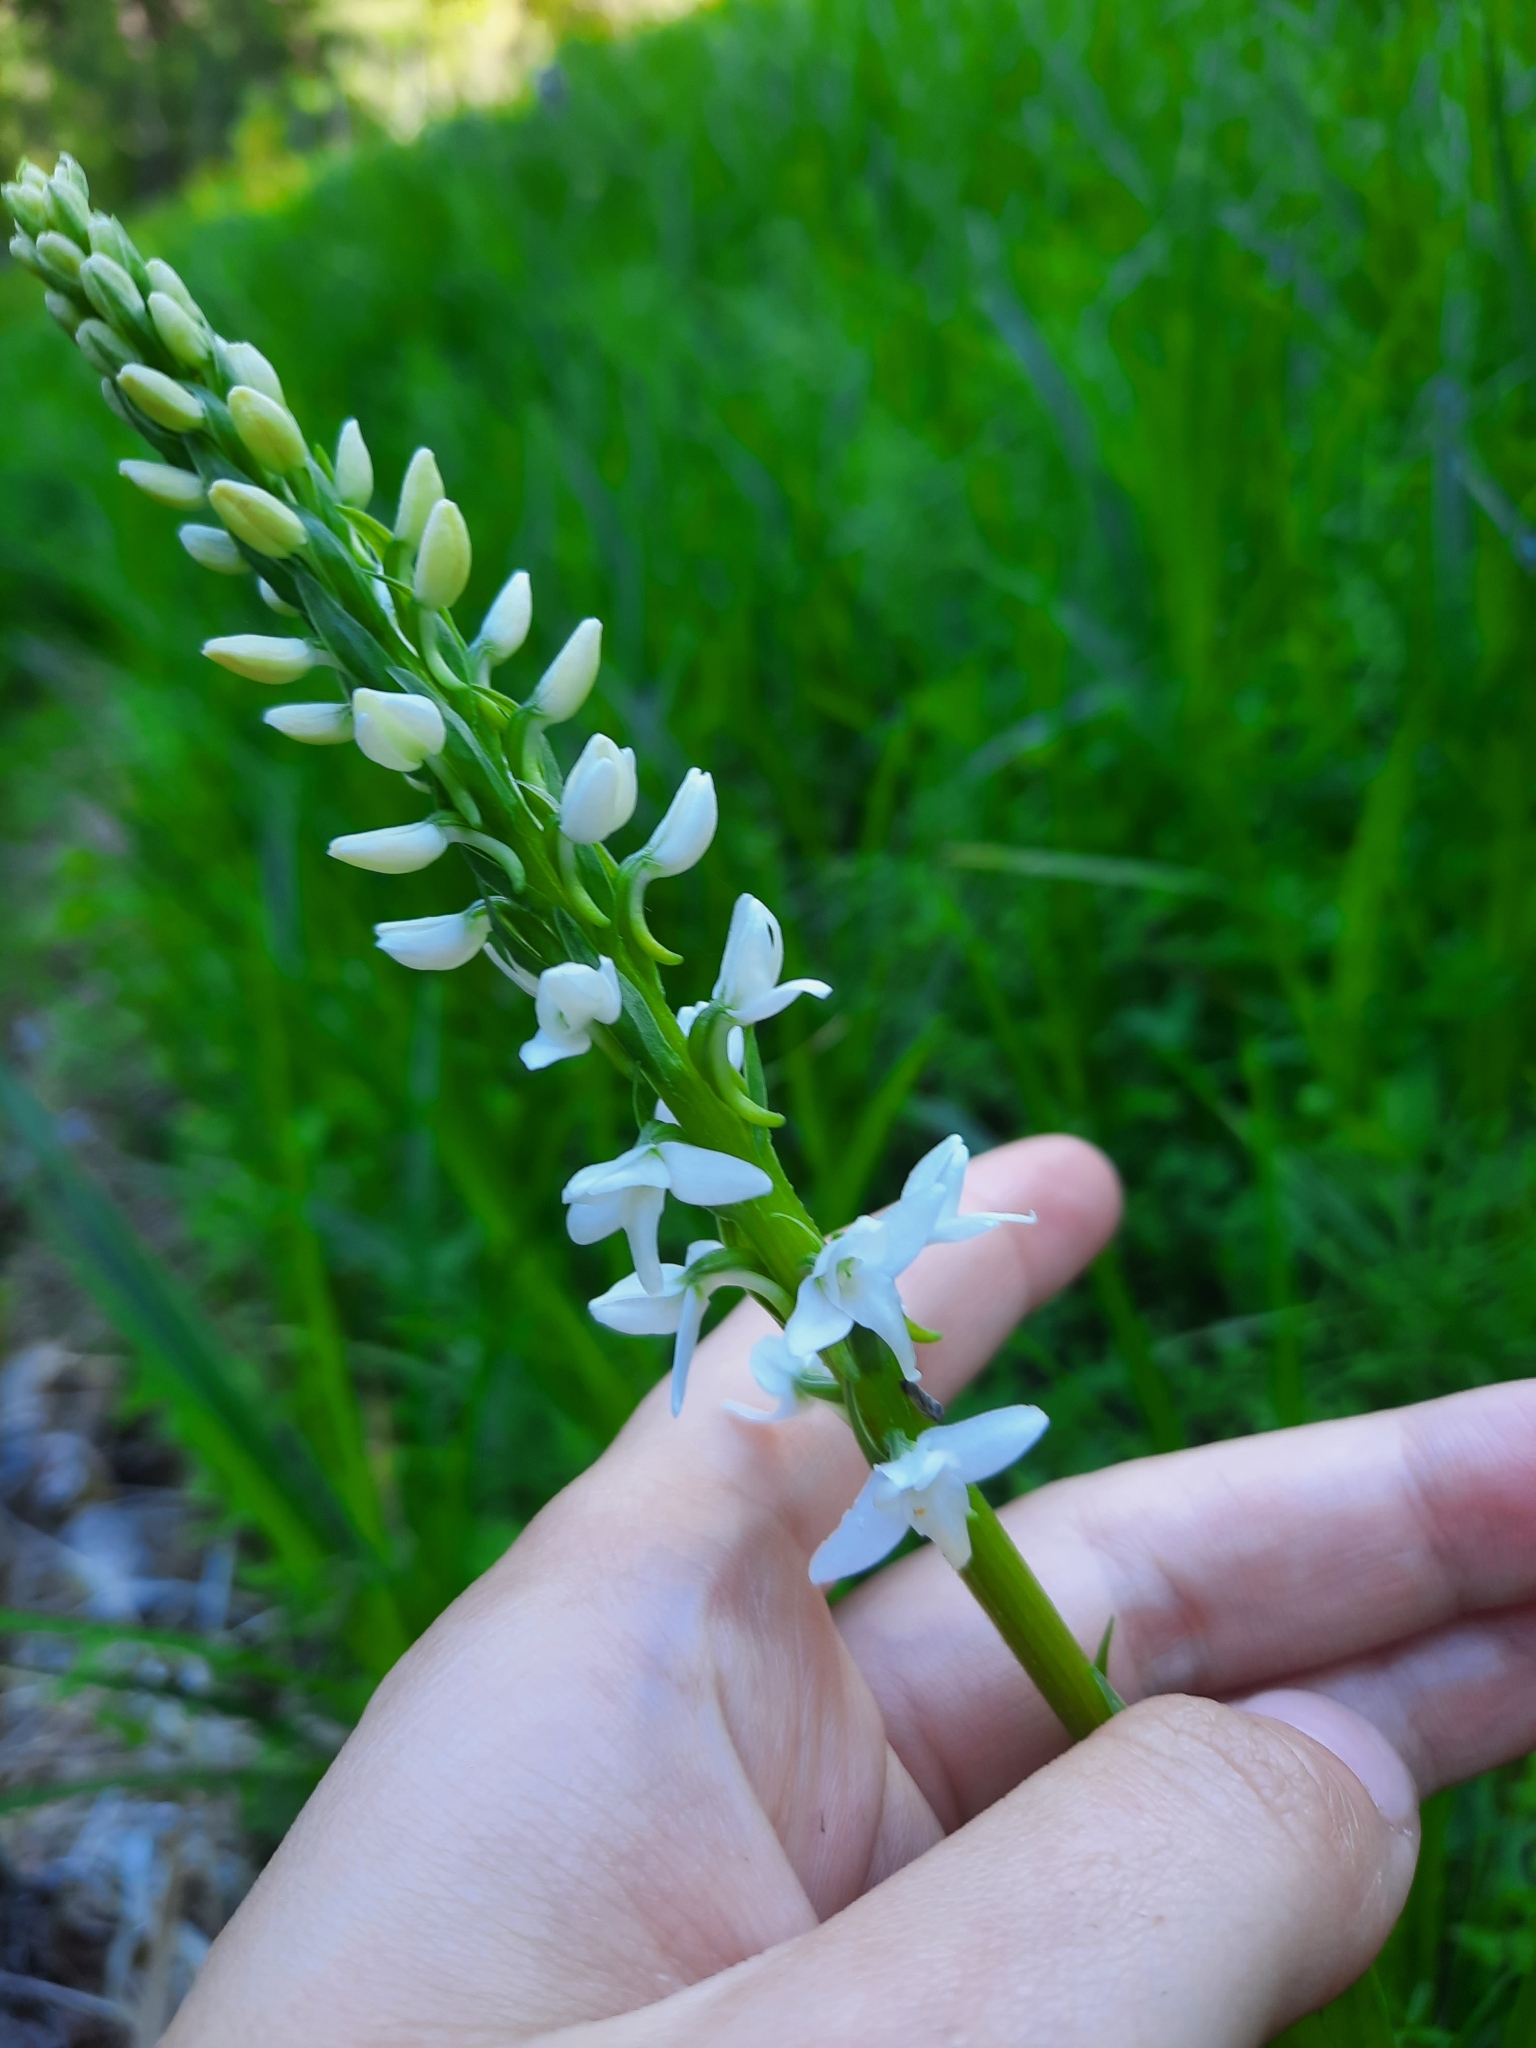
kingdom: Plantae
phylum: Tracheophyta
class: Liliopsida
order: Asparagales
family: Orchidaceae
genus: Platanthera
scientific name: Platanthera dilatata
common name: Bog candles
